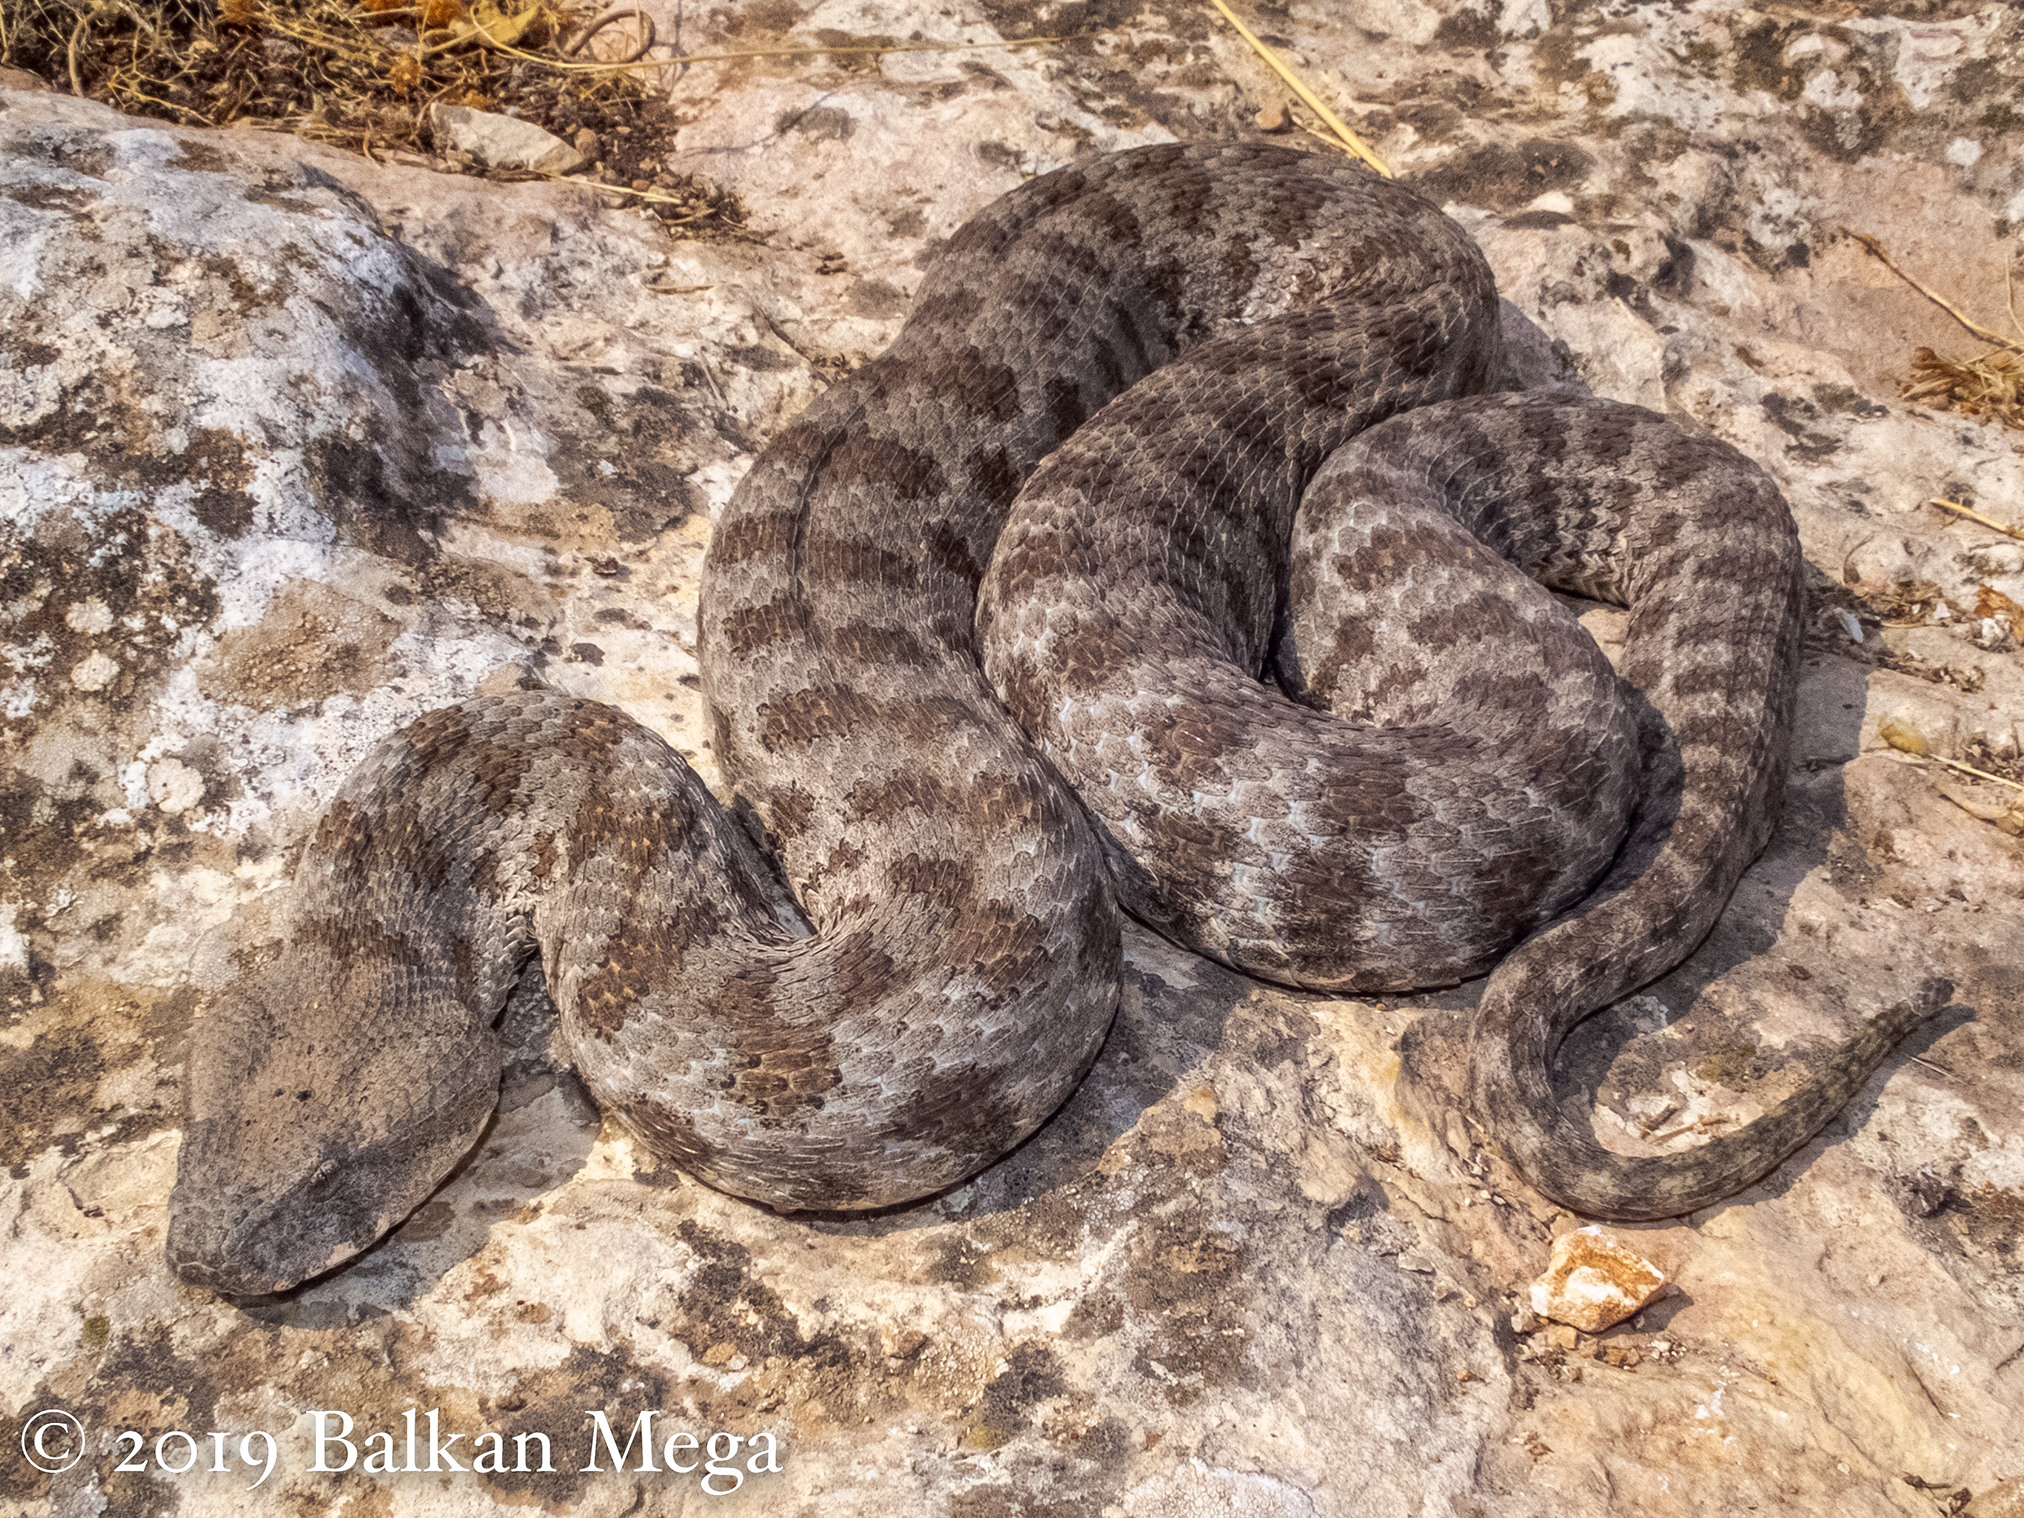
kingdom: Animalia
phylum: Chordata
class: Squamata
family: Viperidae
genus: Macrovipera
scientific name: Macrovipera lebetinus
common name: Levantine viper
